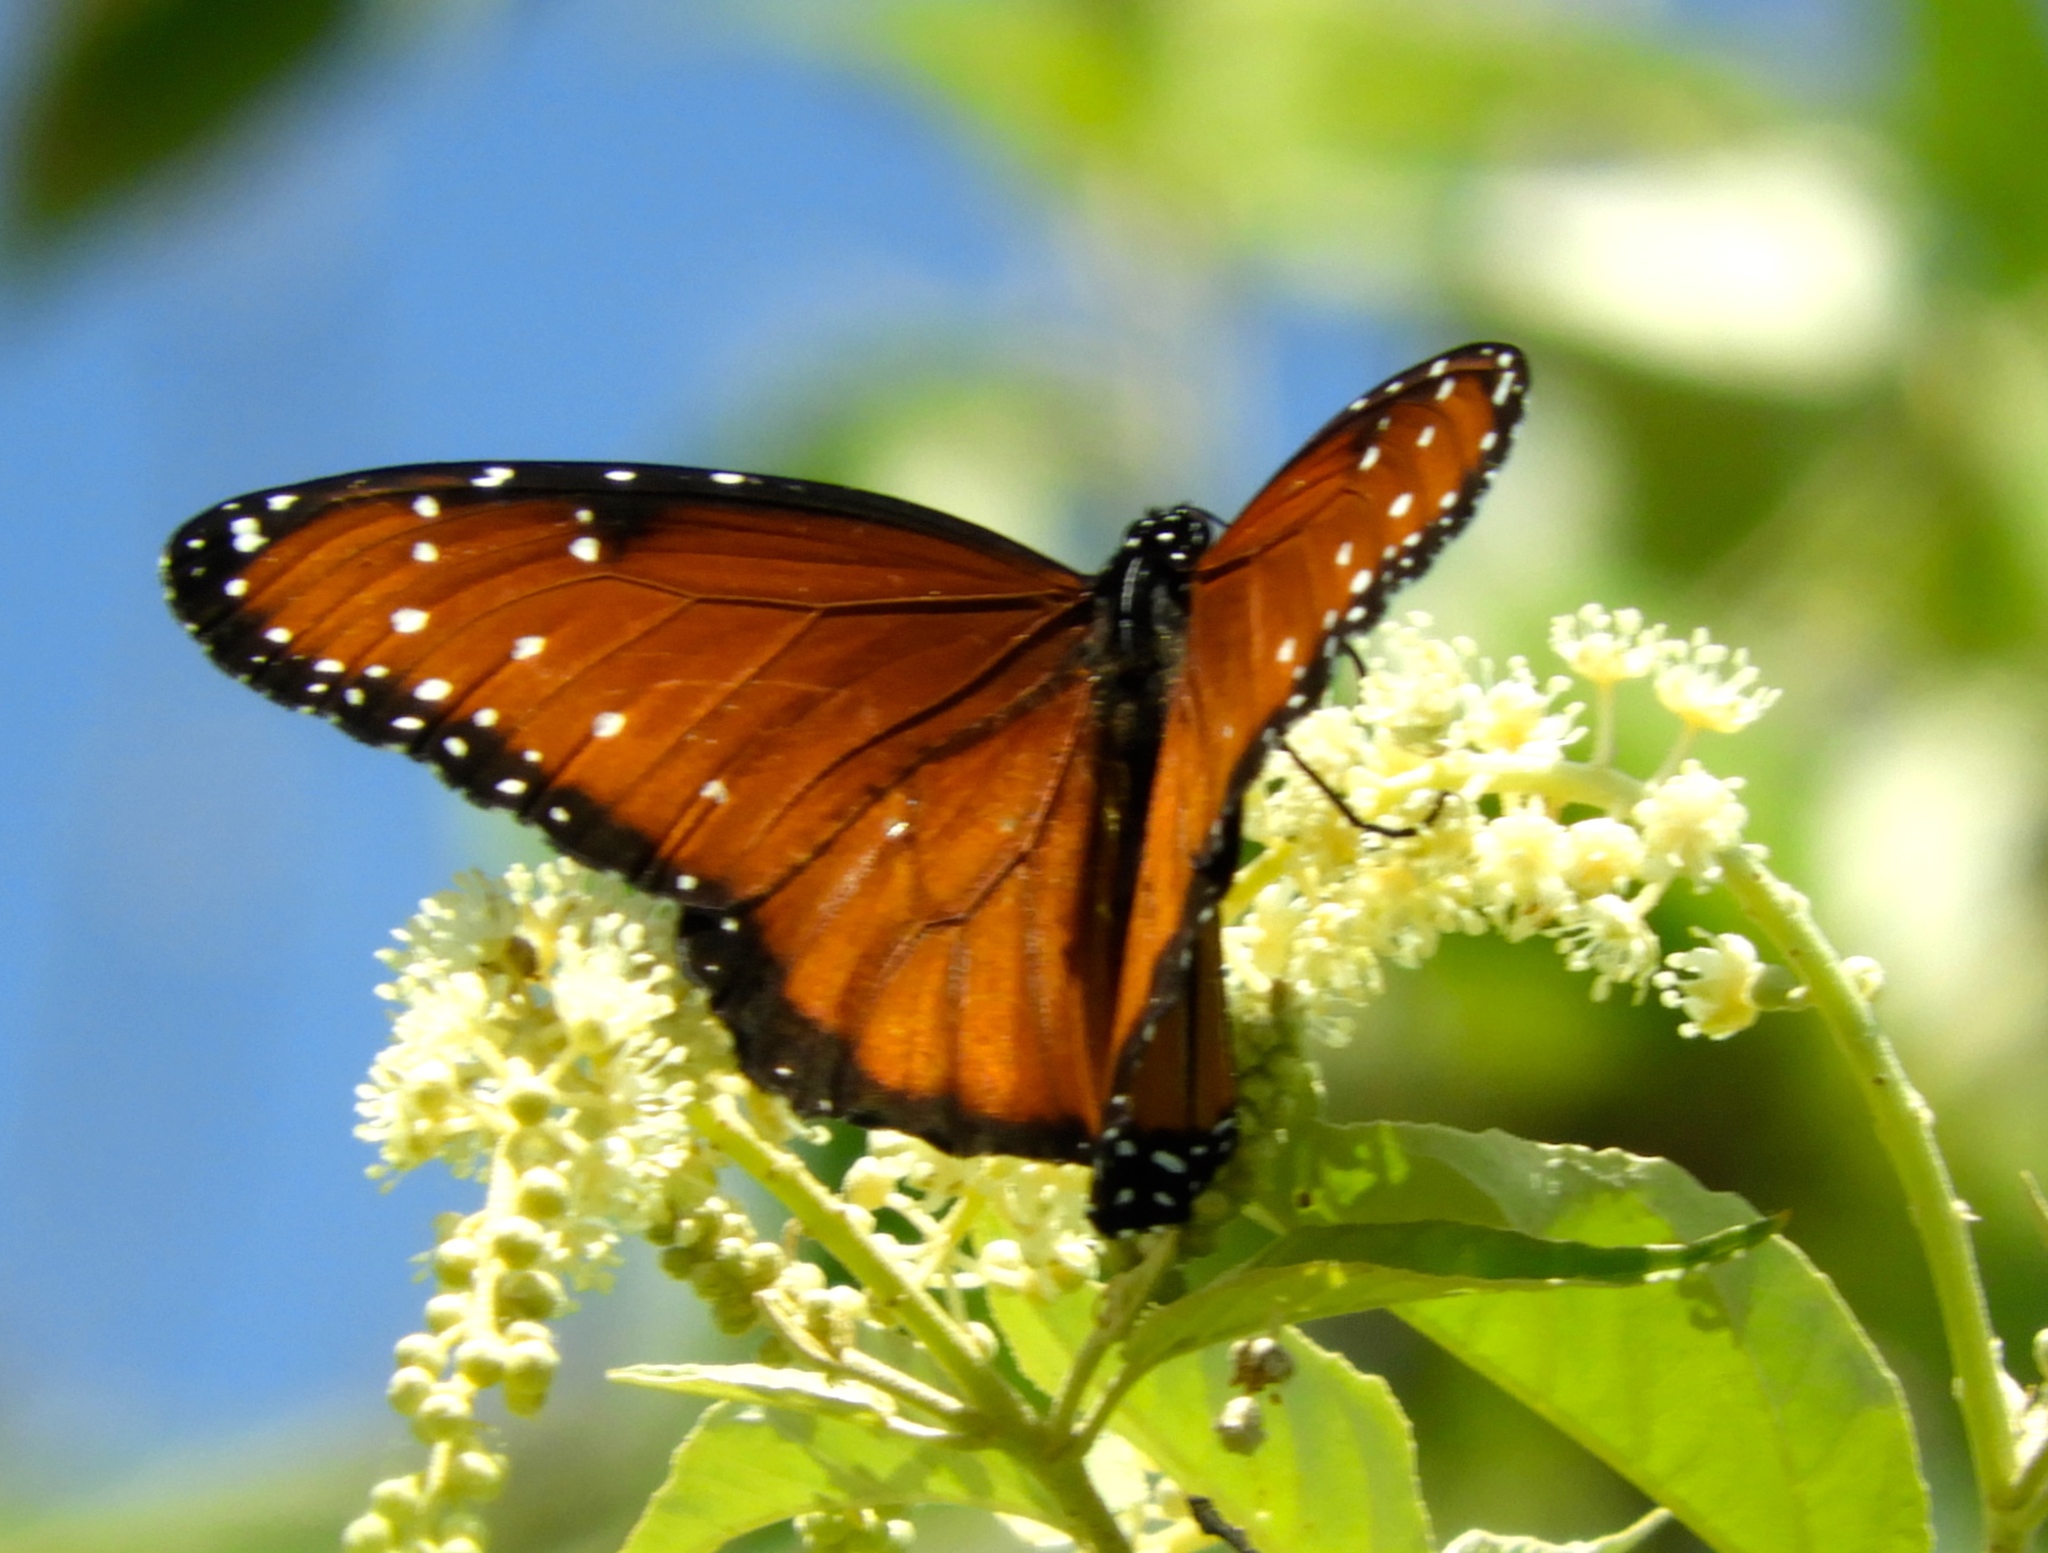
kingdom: Animalia
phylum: Arthropoda
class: Insecta
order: Lepidoptera
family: Nymphalidae
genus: Danaus
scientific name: Danaus gilippus
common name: Queen
